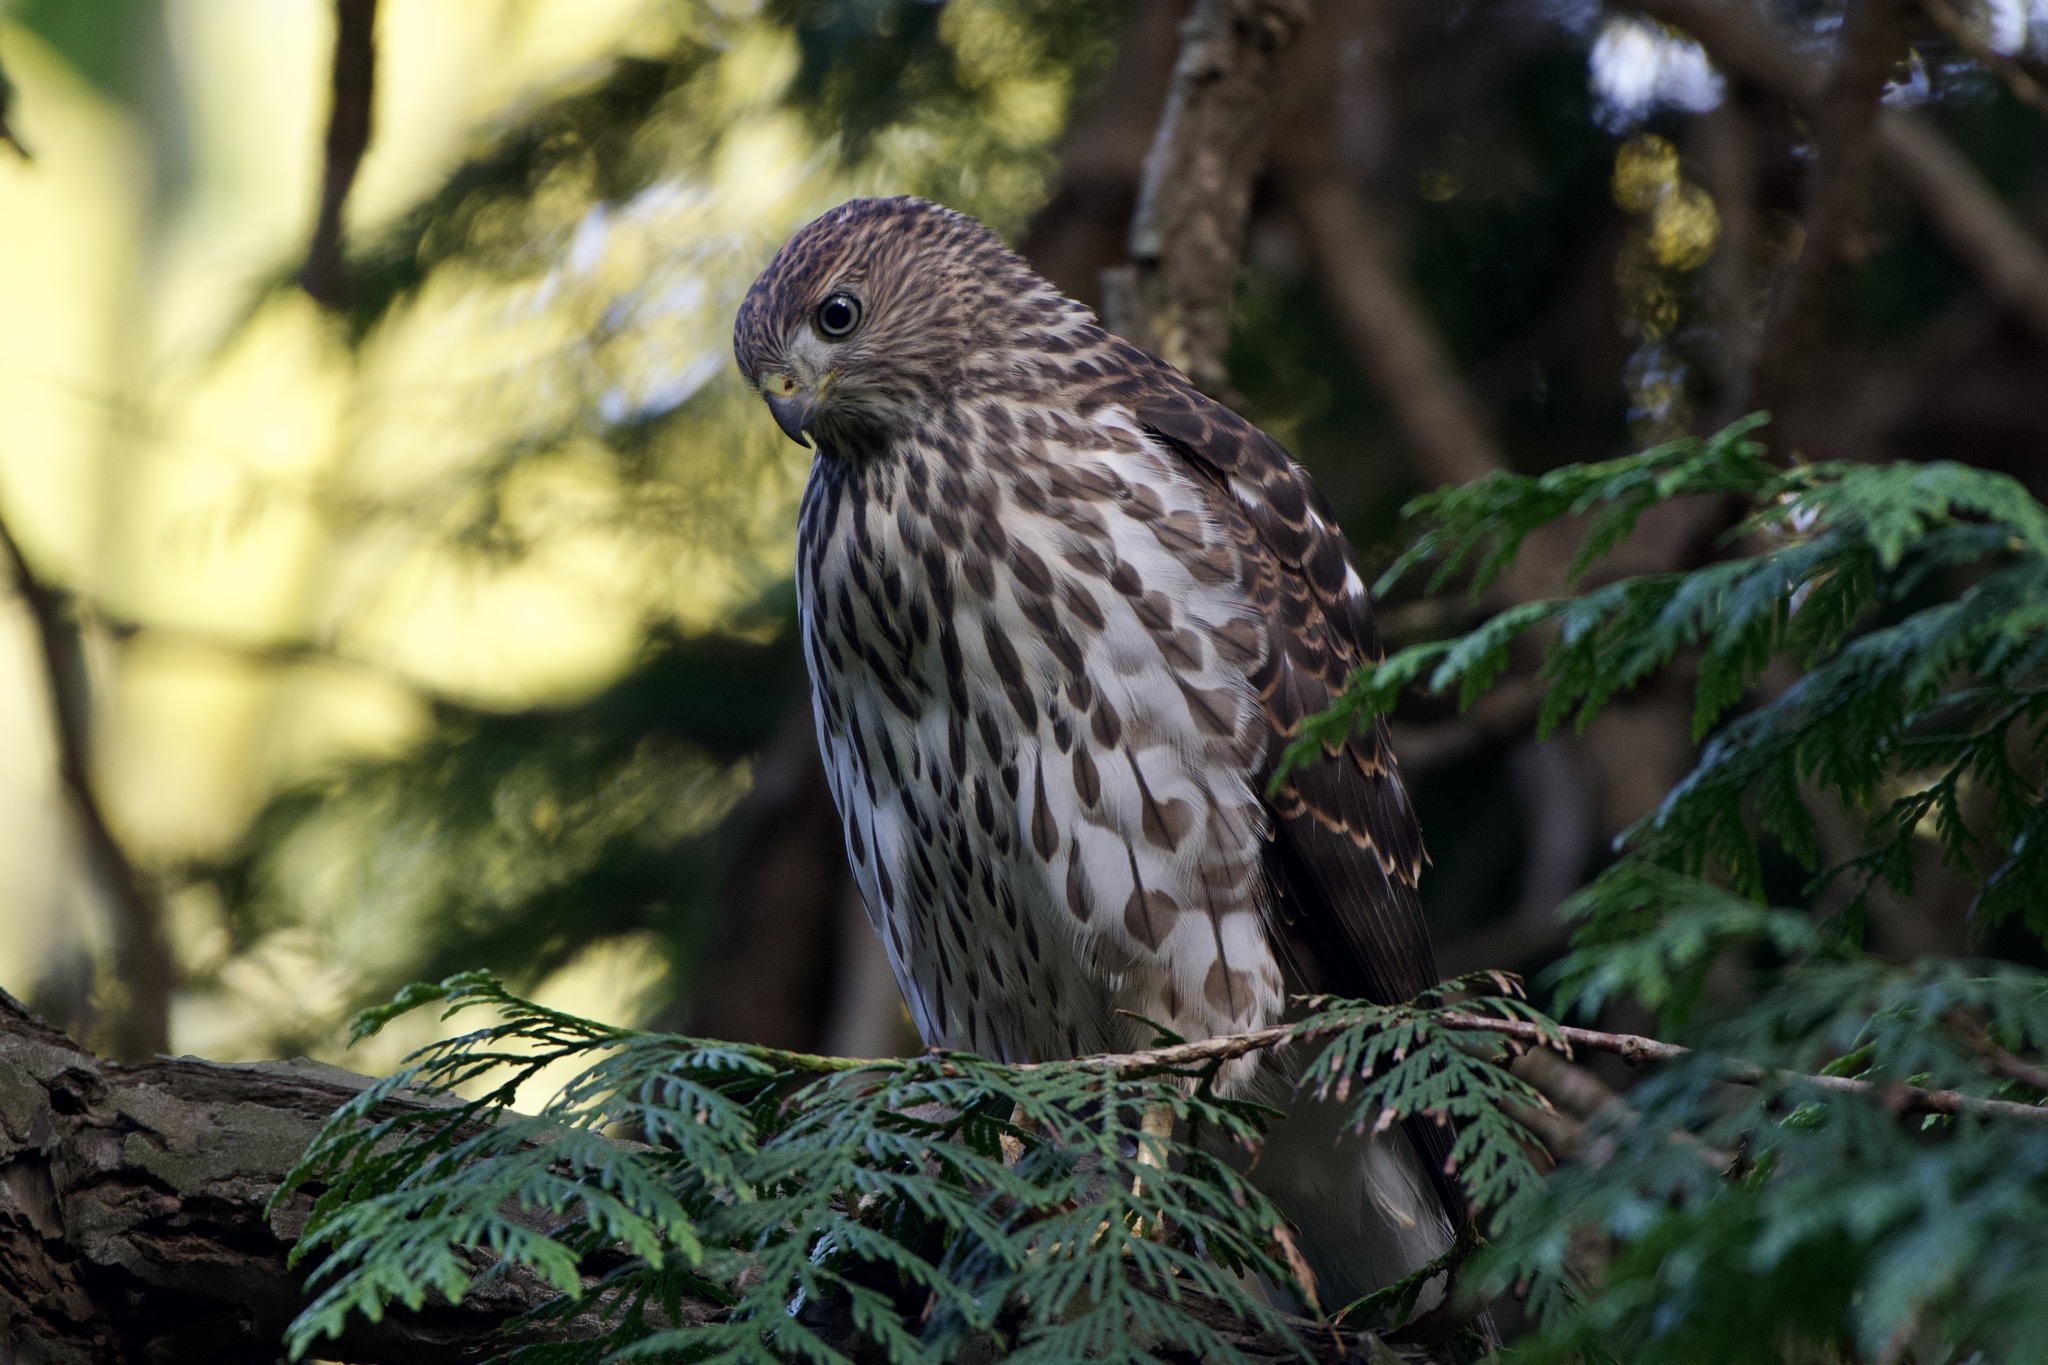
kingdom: Animalia
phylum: Chordata
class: Aves
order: Accipitriformes
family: Accipitridae
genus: Accipiter
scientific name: Accipiter cooperii
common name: Cooper's hawk
